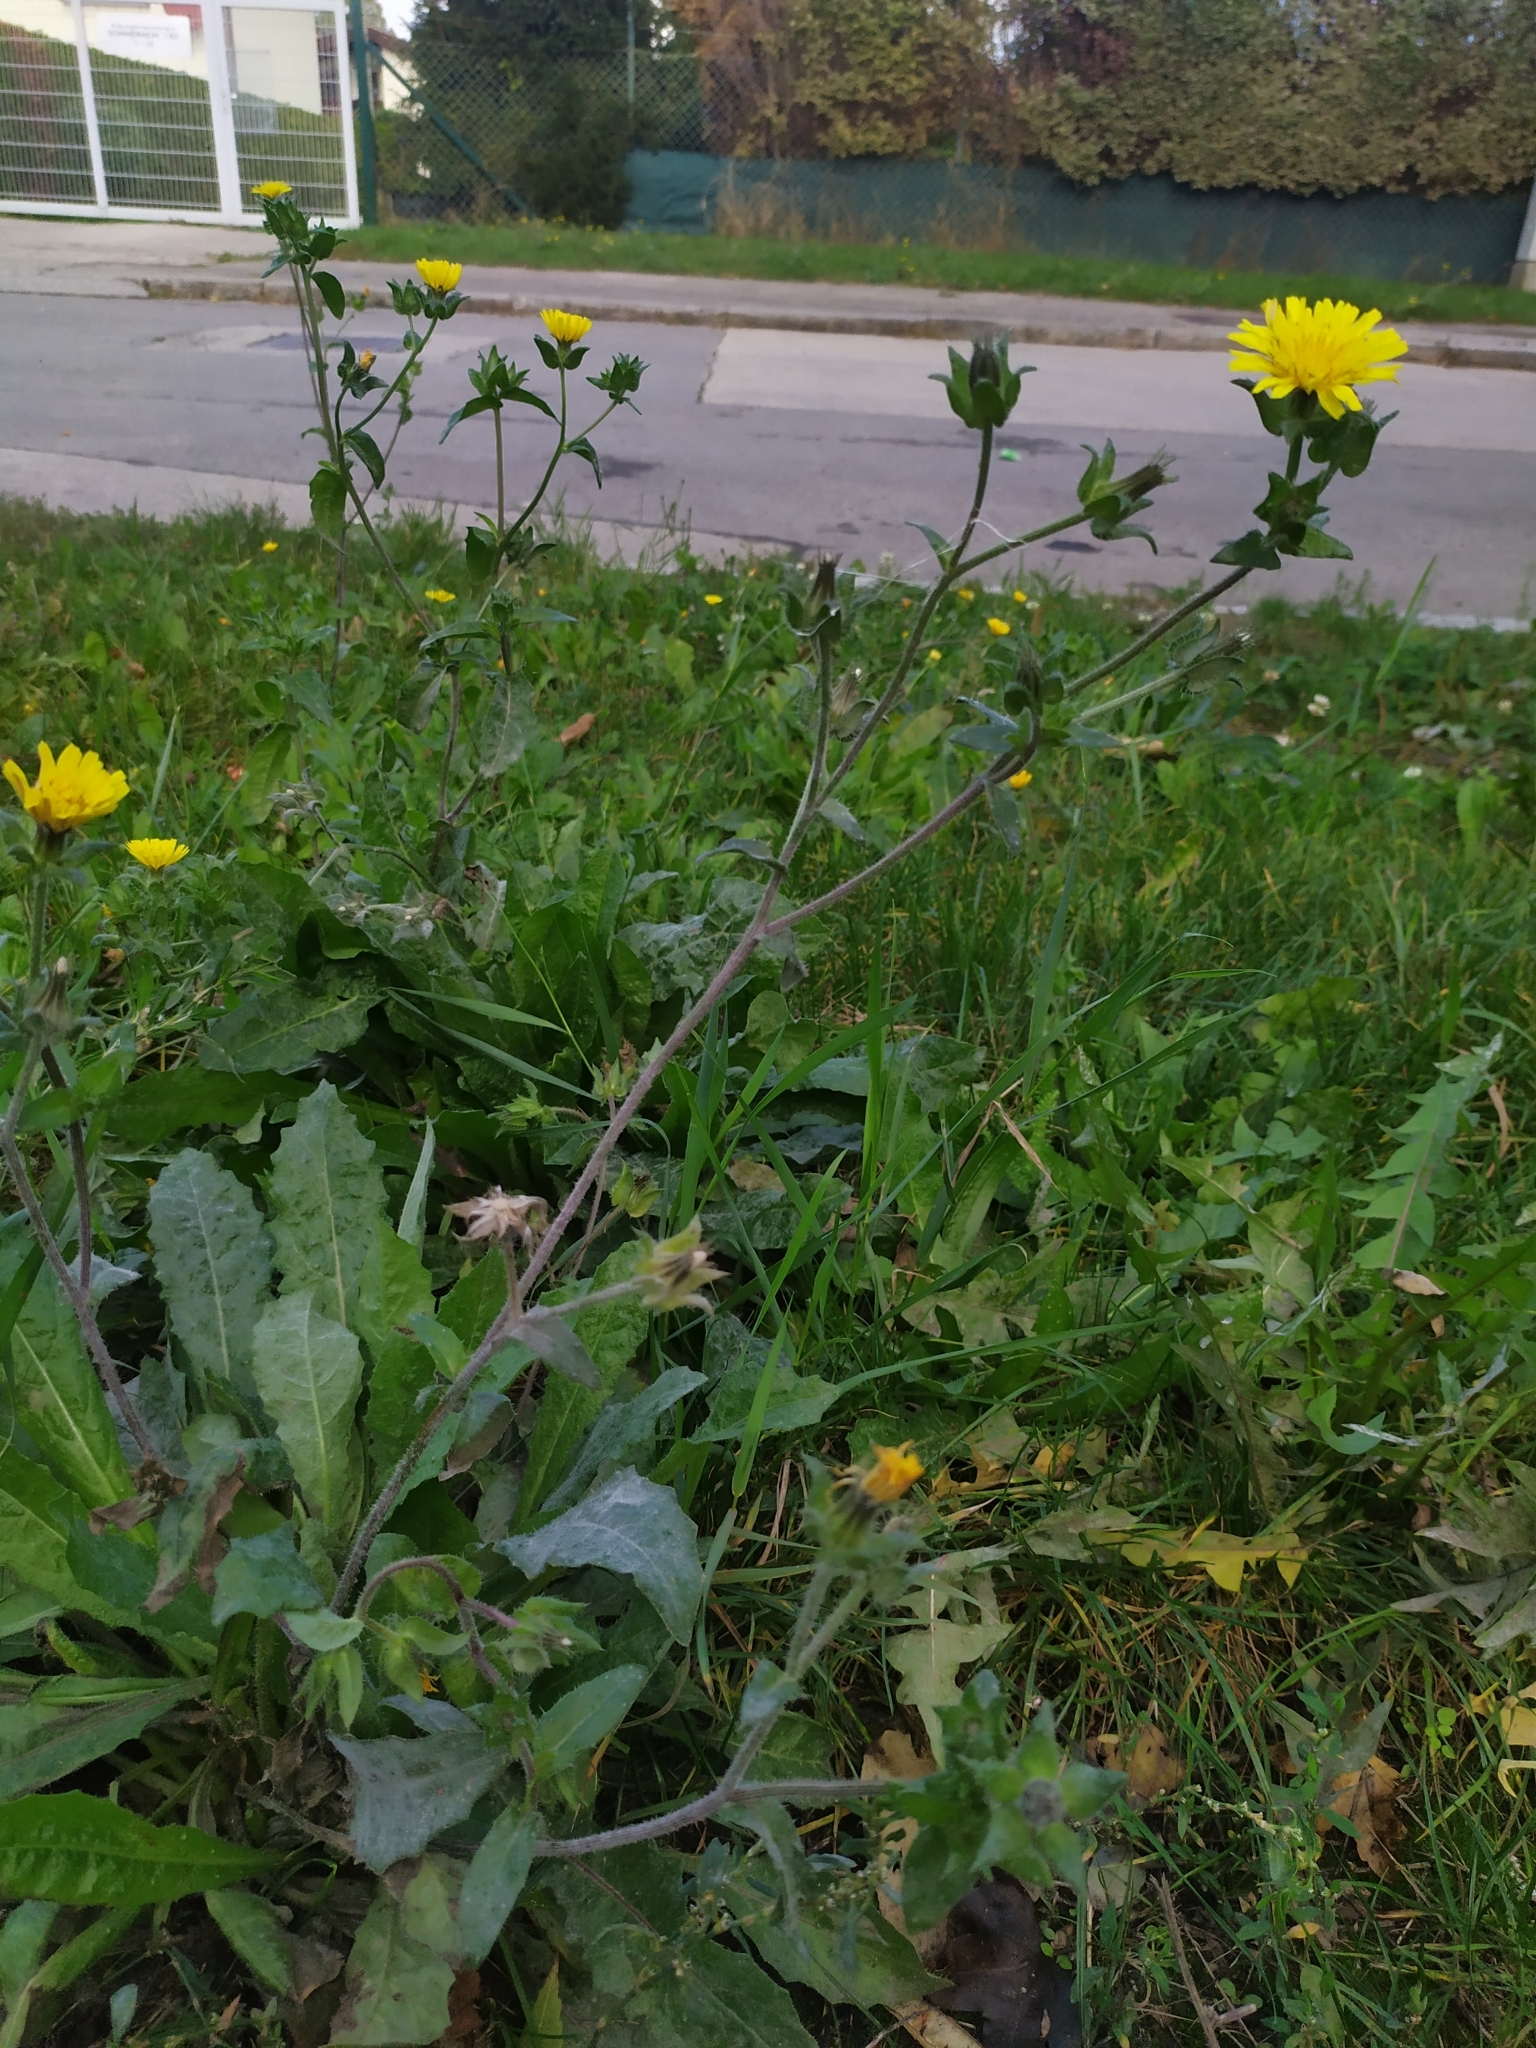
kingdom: Plantae
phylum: Tracheophyta
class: Magnoliopsida
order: Asterales
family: Asteraceae
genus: Helminthotheca
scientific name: Helminthotheca echioides
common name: Ox-tongue
